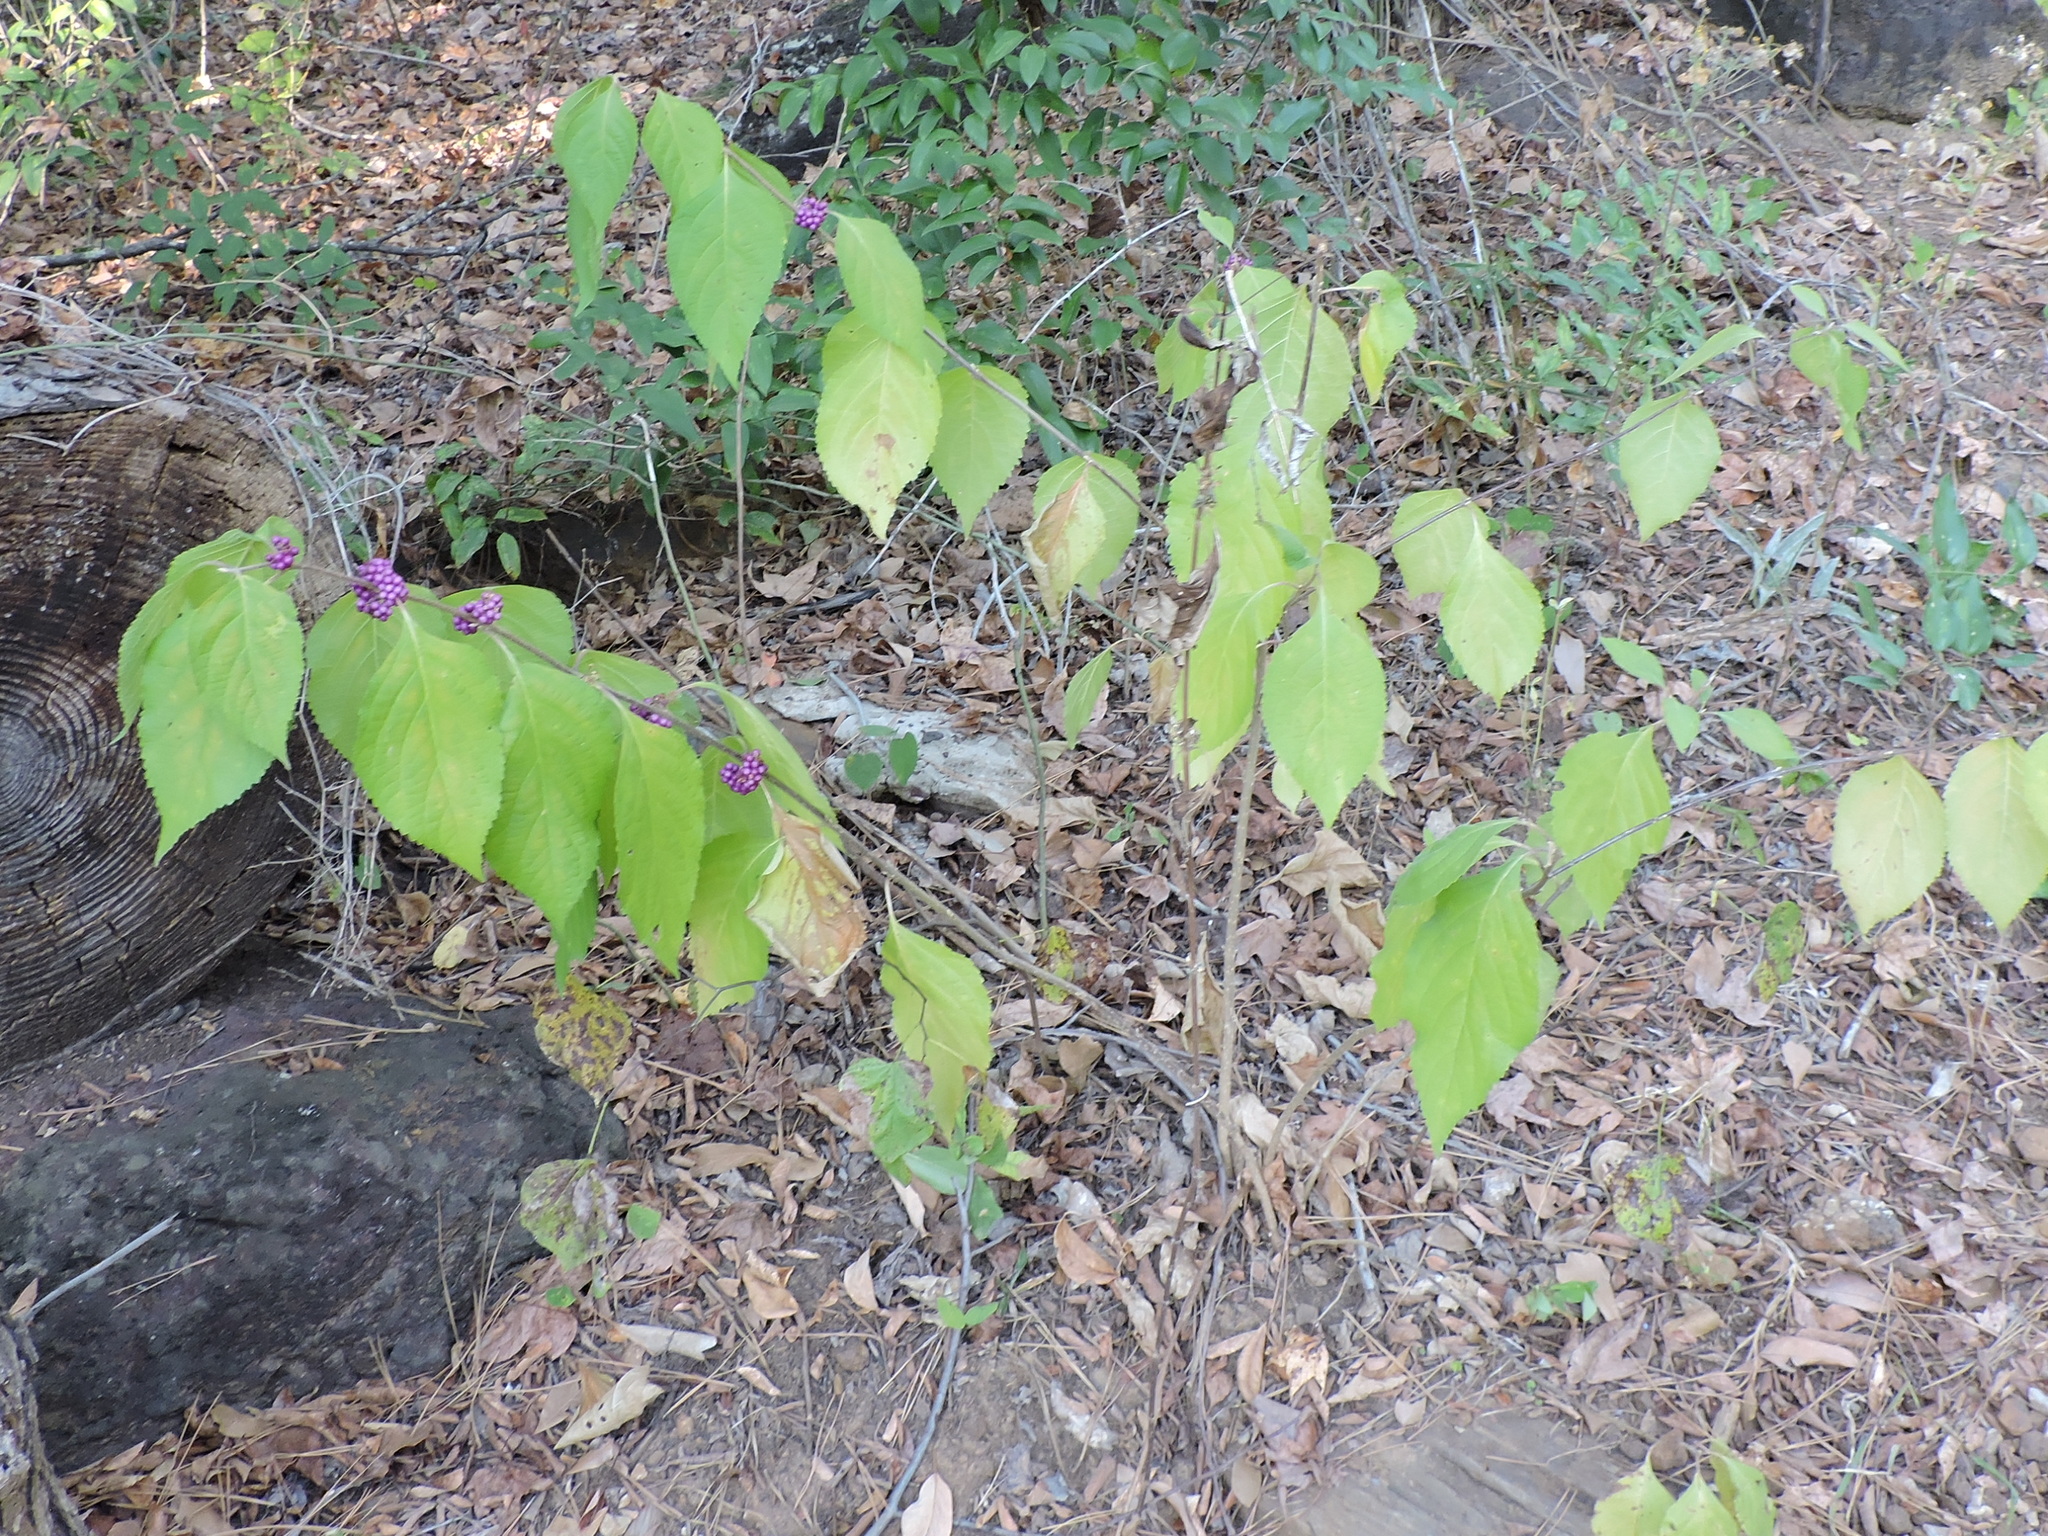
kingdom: Plantae
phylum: Tracheophyta
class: Magnoliopsida
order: Lamiales
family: Lamiaceae
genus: Callicarpa
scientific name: Callicarpa americana
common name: American beautyberry
